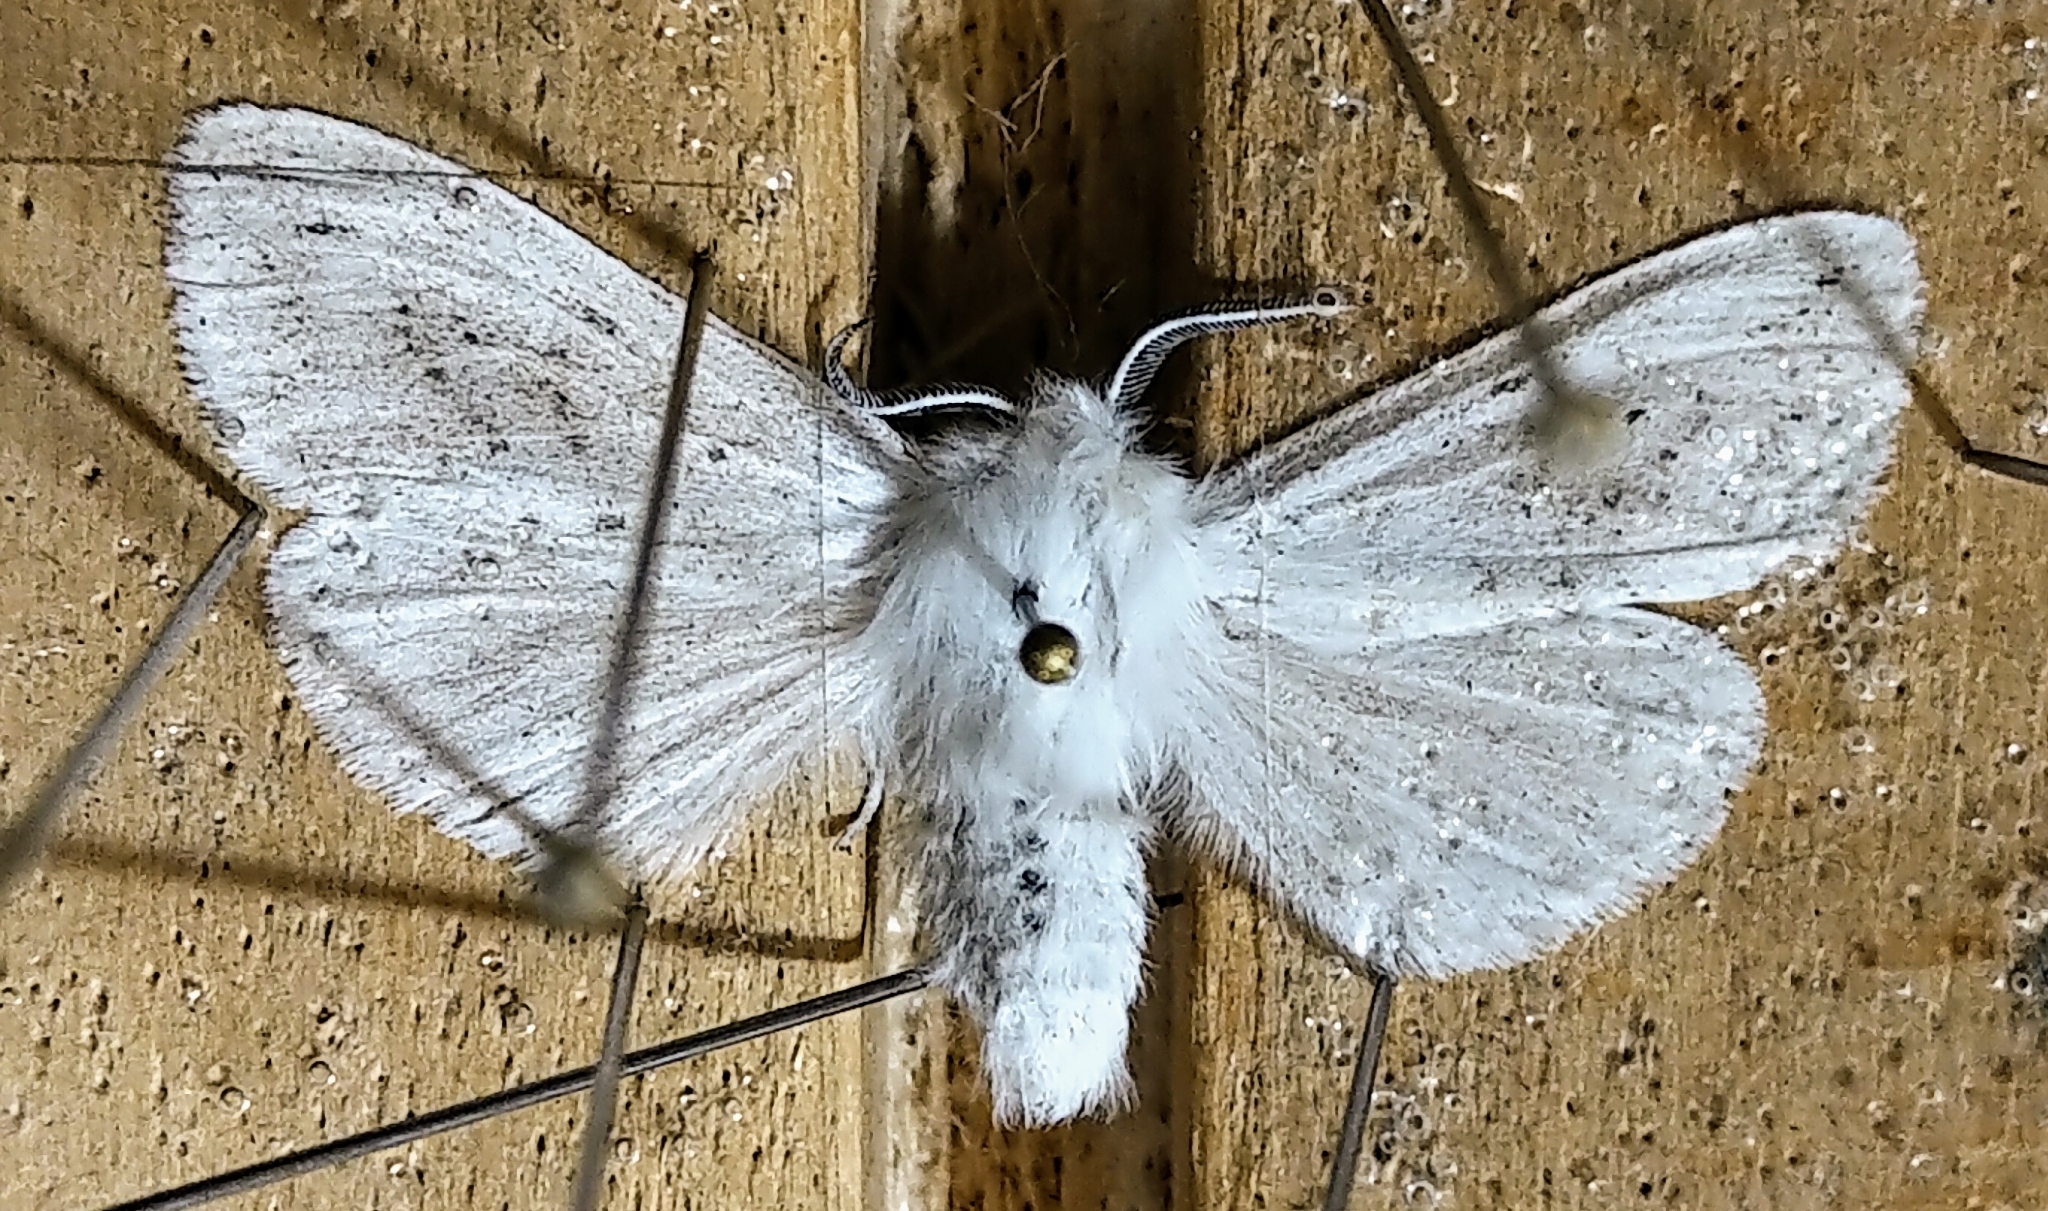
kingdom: Animalia
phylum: Arthropoda
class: Insecta
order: Lepidoptera
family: Erebidae
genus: Spilosoma
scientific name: Spilosoma dubia
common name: Dubious tiger moth
